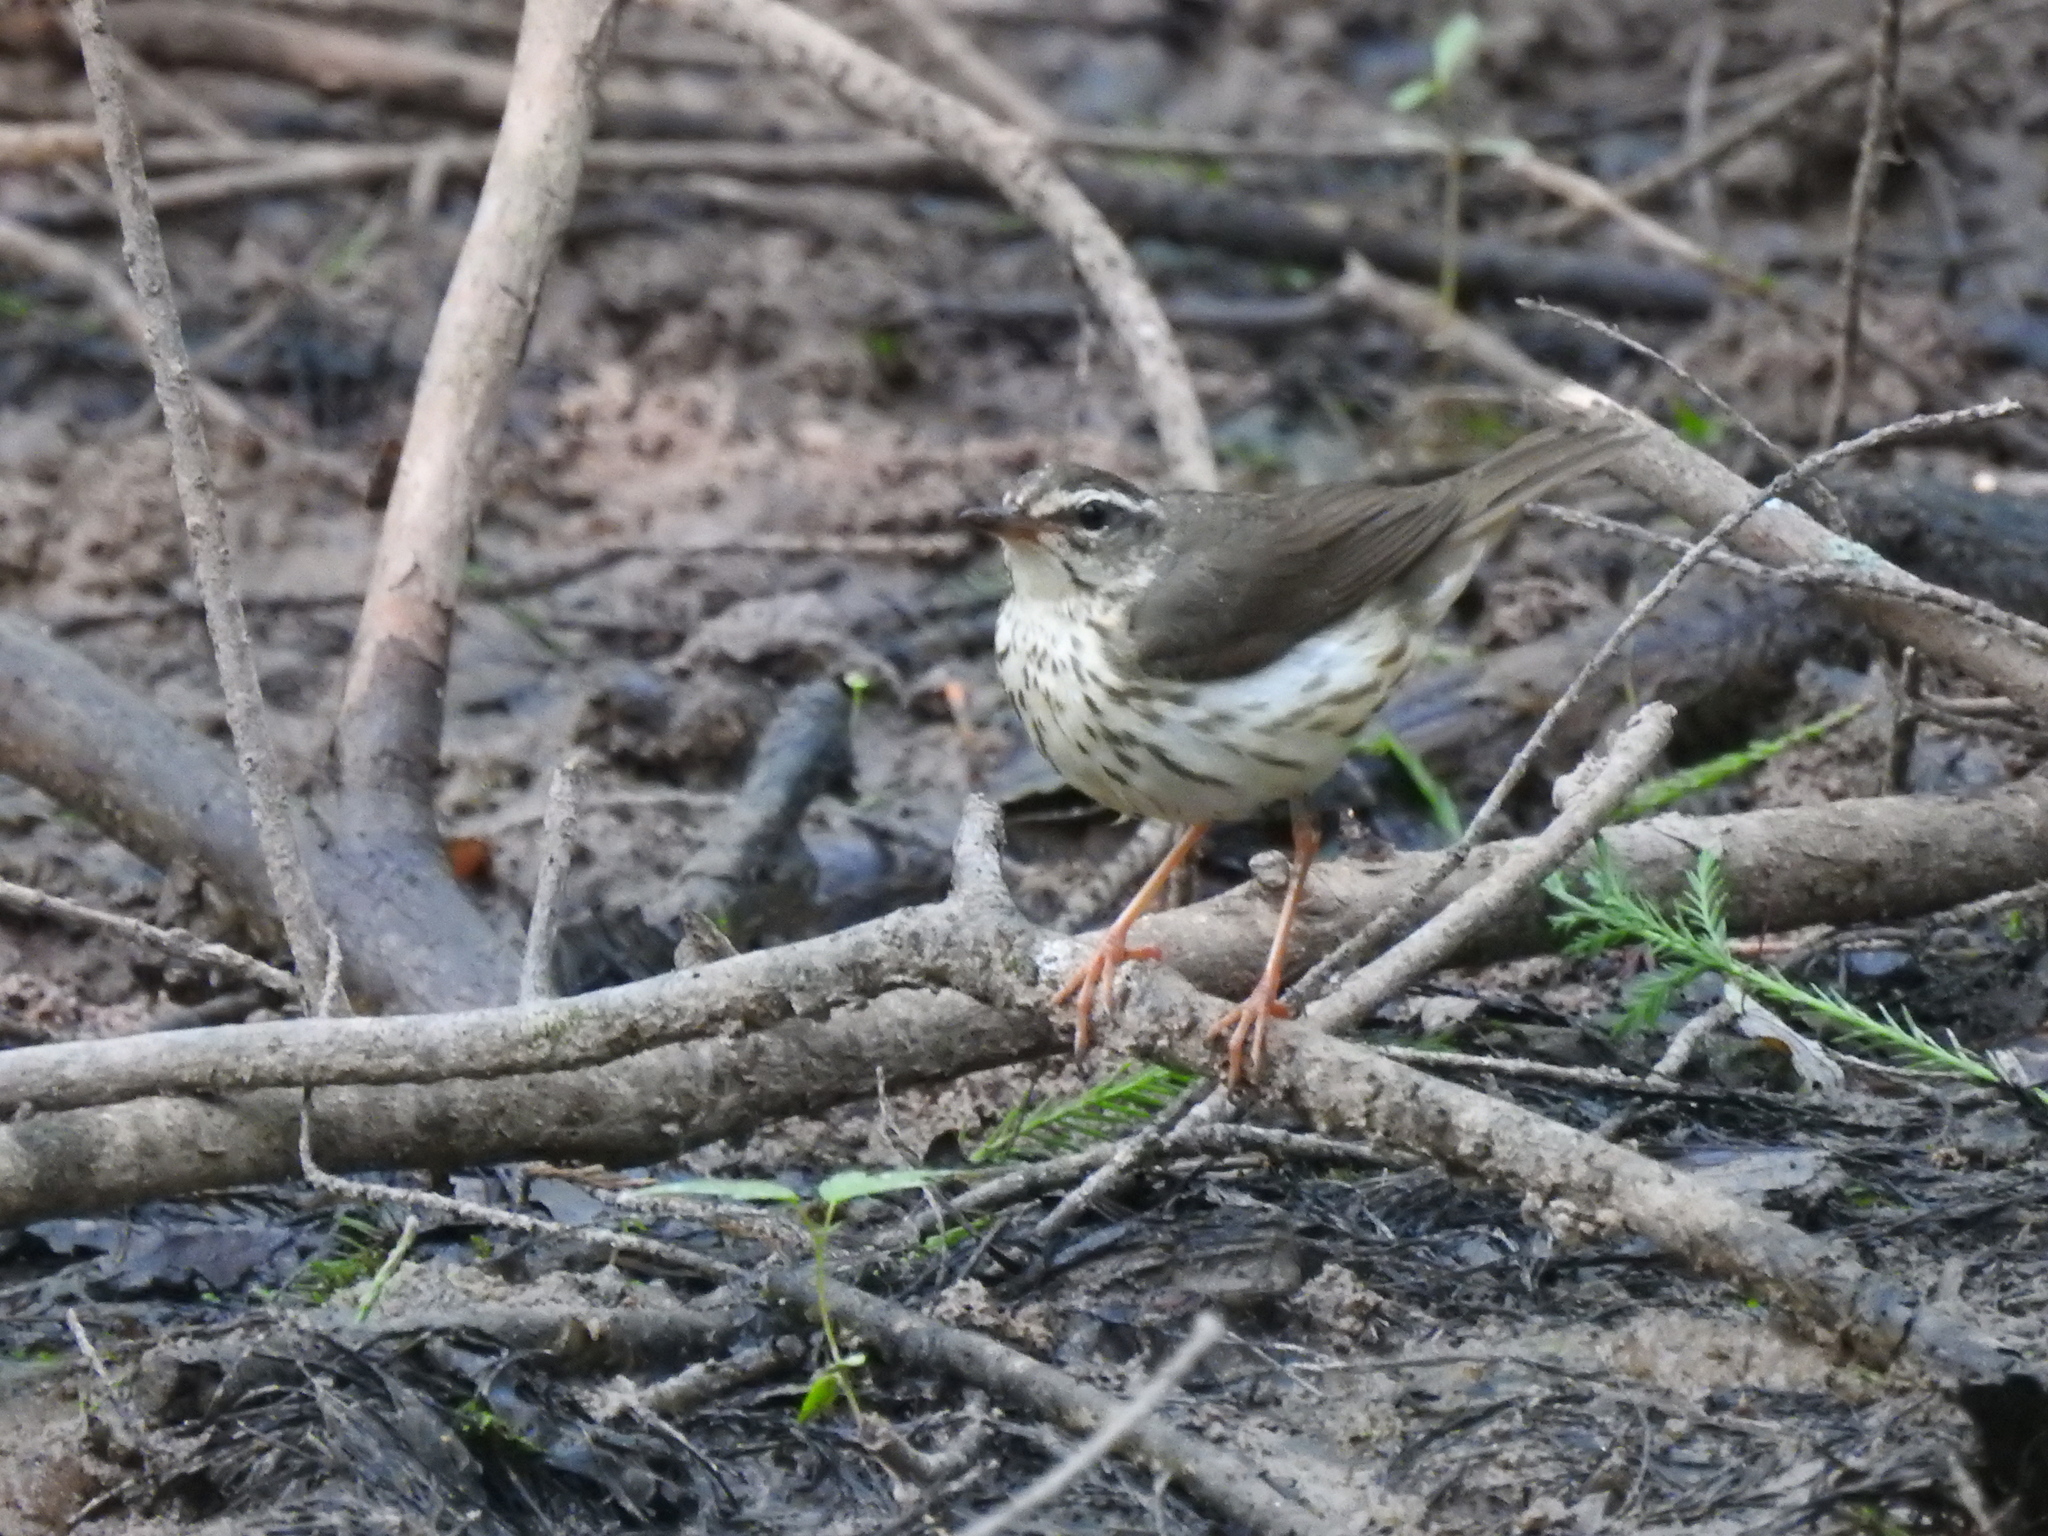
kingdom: Animalia
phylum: Chordata
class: Aves
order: Passeriformes
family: Parulidae
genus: Parkesia
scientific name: Parkesia motacilla
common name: Louisiana waterthrush
